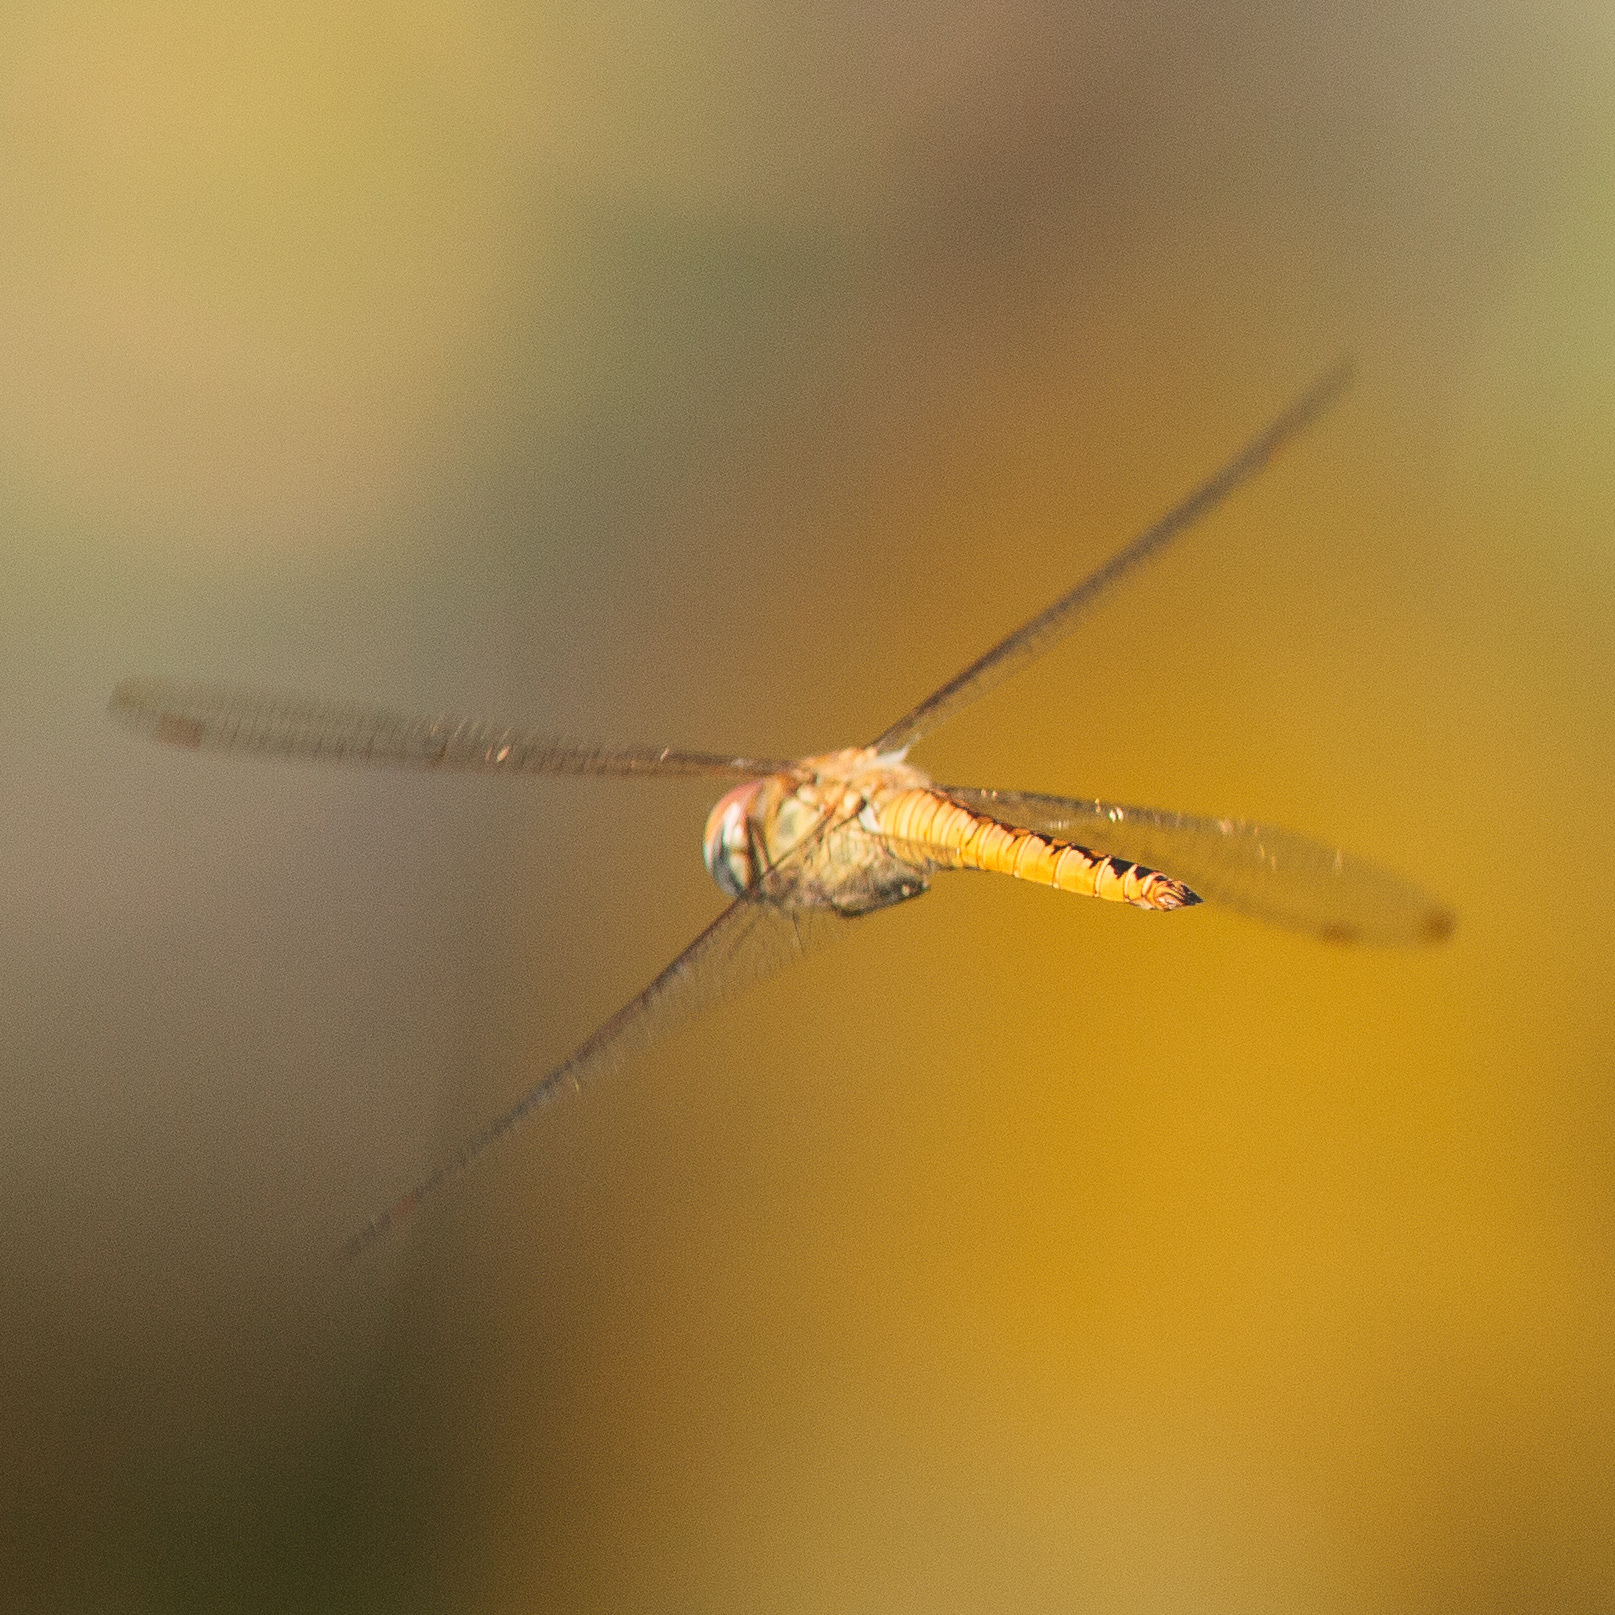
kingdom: Animalia
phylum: Arthropoda
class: Insecta
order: Odonata
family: Libellulidae
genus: Pantala
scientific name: Pantala flavescens
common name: Wandering glider
